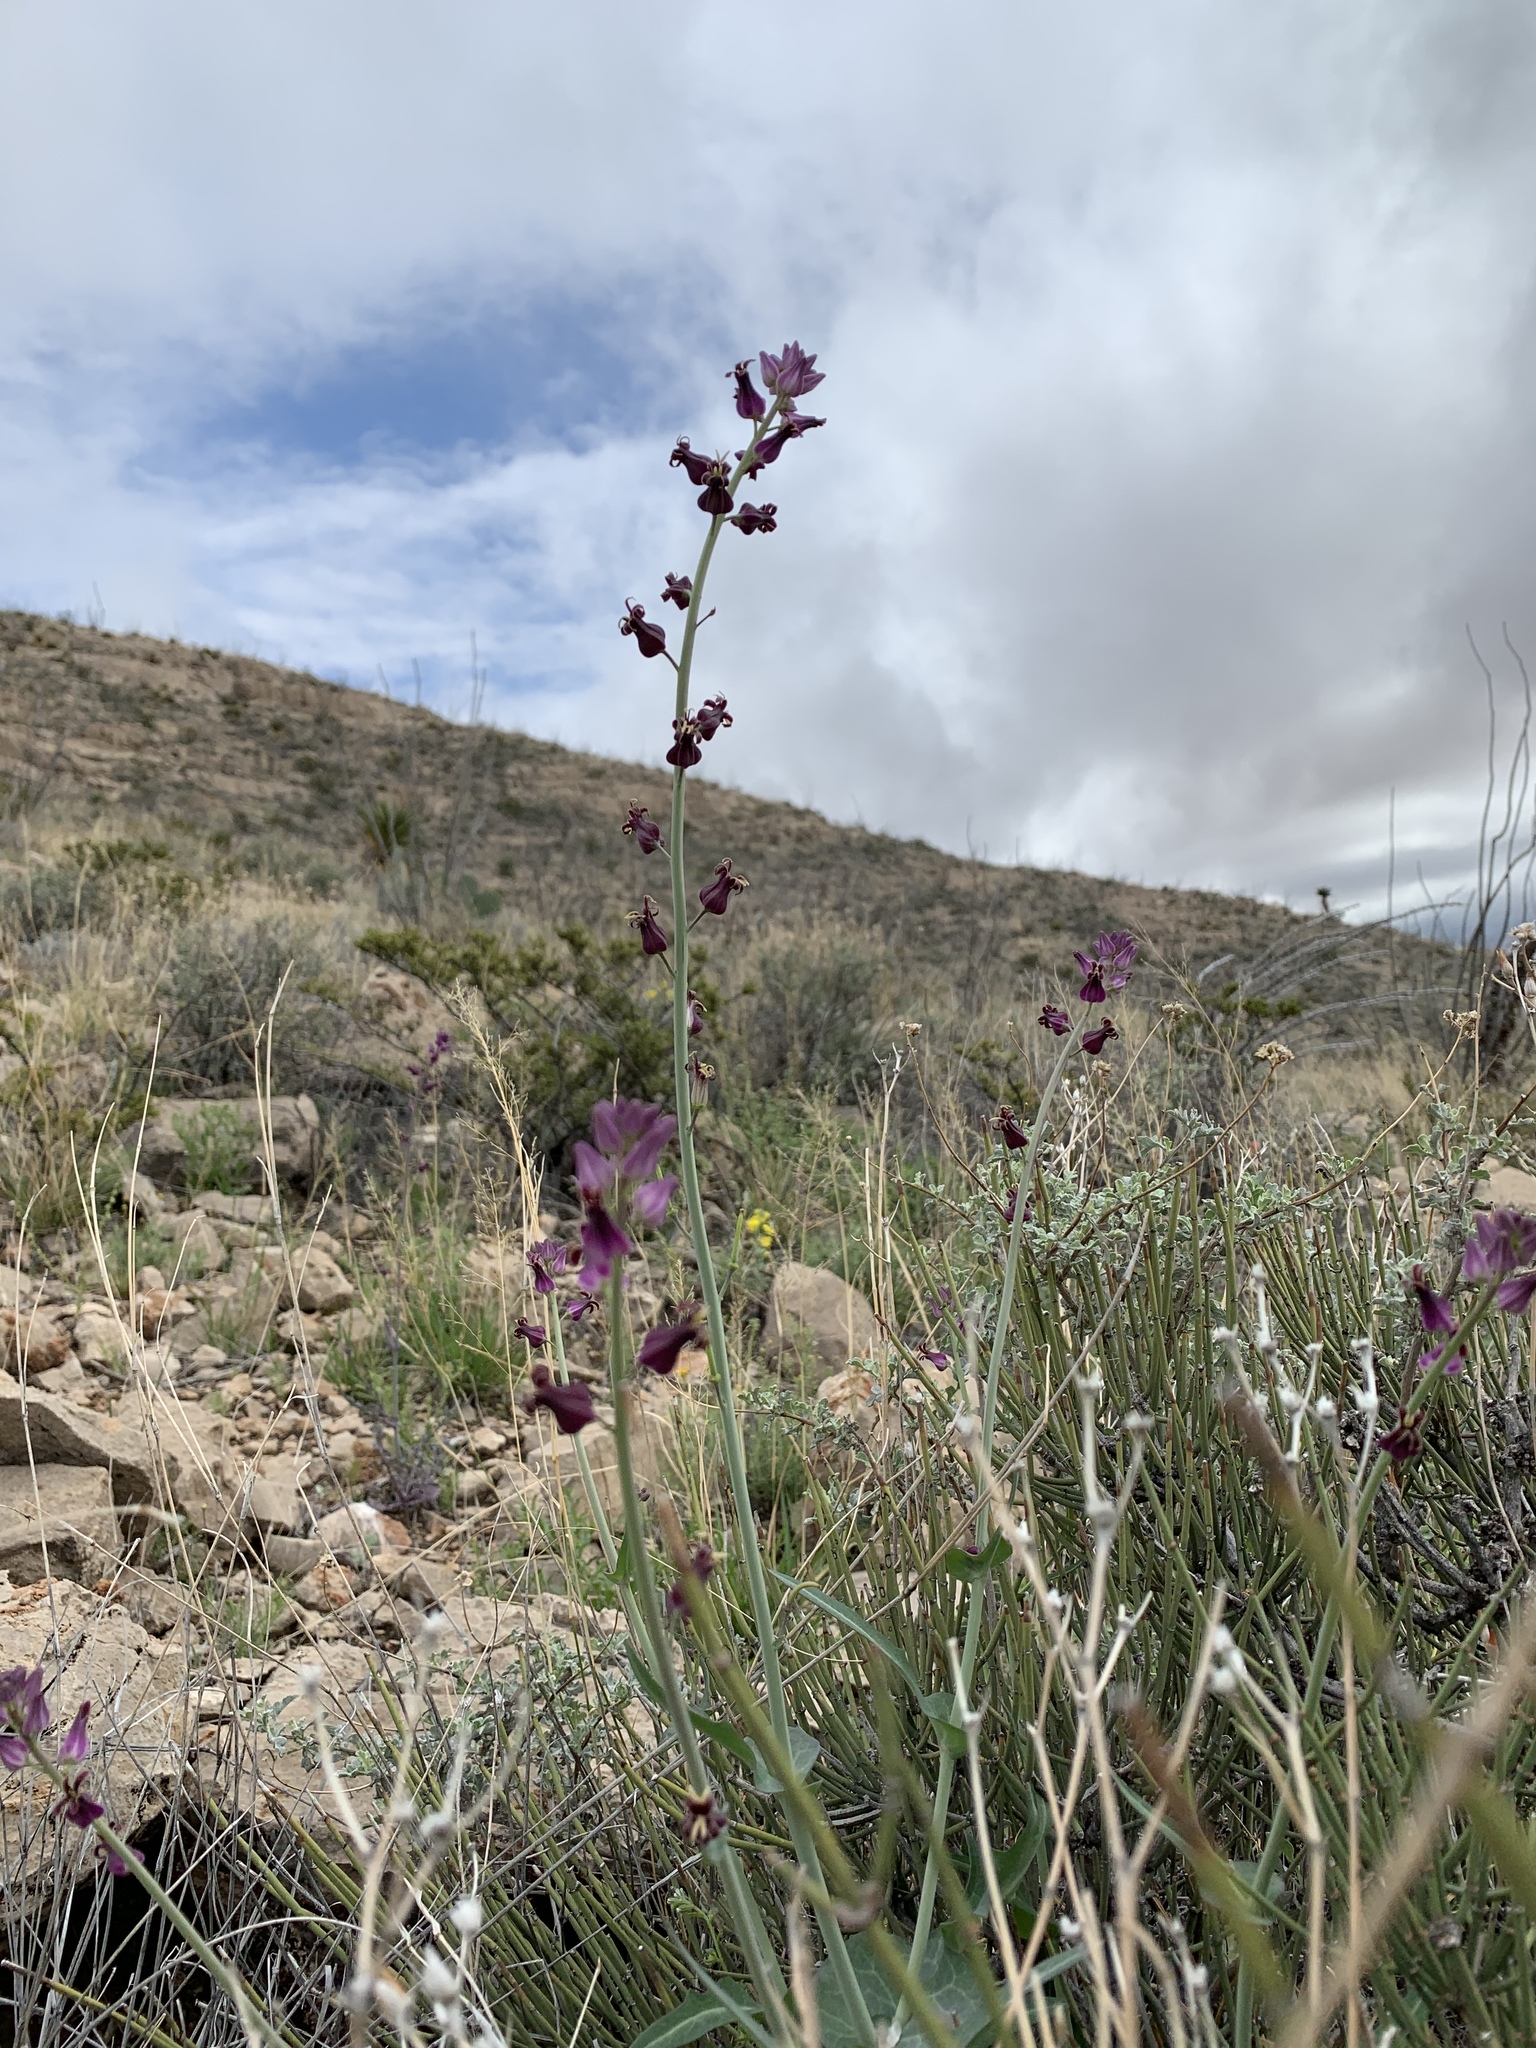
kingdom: Plantae
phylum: Tracheophyta
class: Magnoliopsida
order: Brassicales
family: Brassicaceae
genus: Streptanthus
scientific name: Streptanthus carinatus
